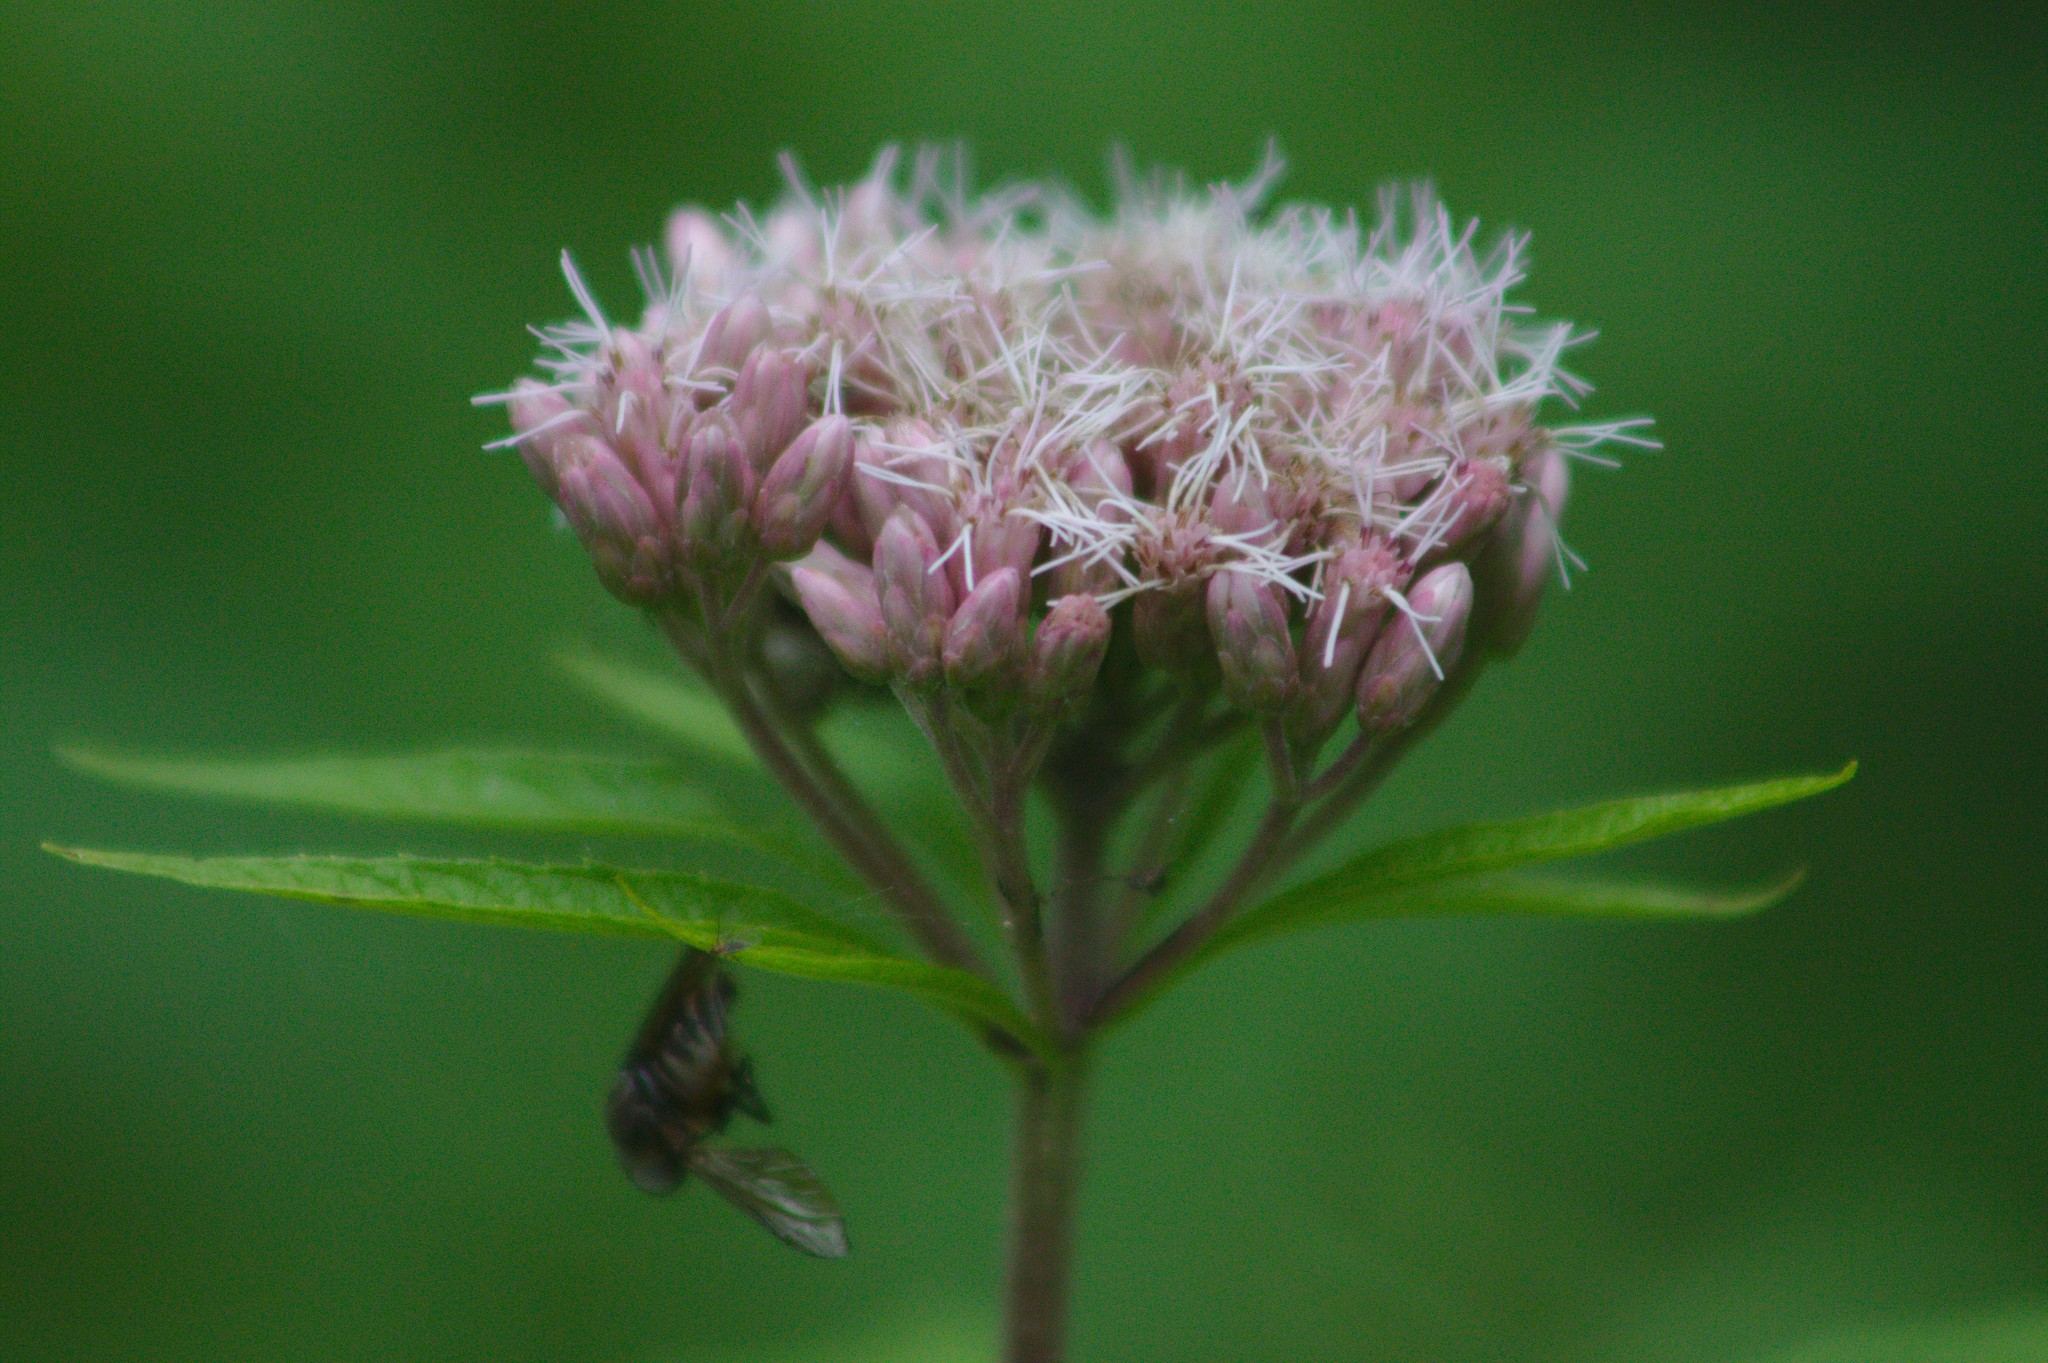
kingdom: Plantae
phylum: Tracheophyta
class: Magnoliopsida
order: Asterales
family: Asteraceae
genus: Eutrochium
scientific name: Eutrochium maculatum
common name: Spotted joe pye weed
